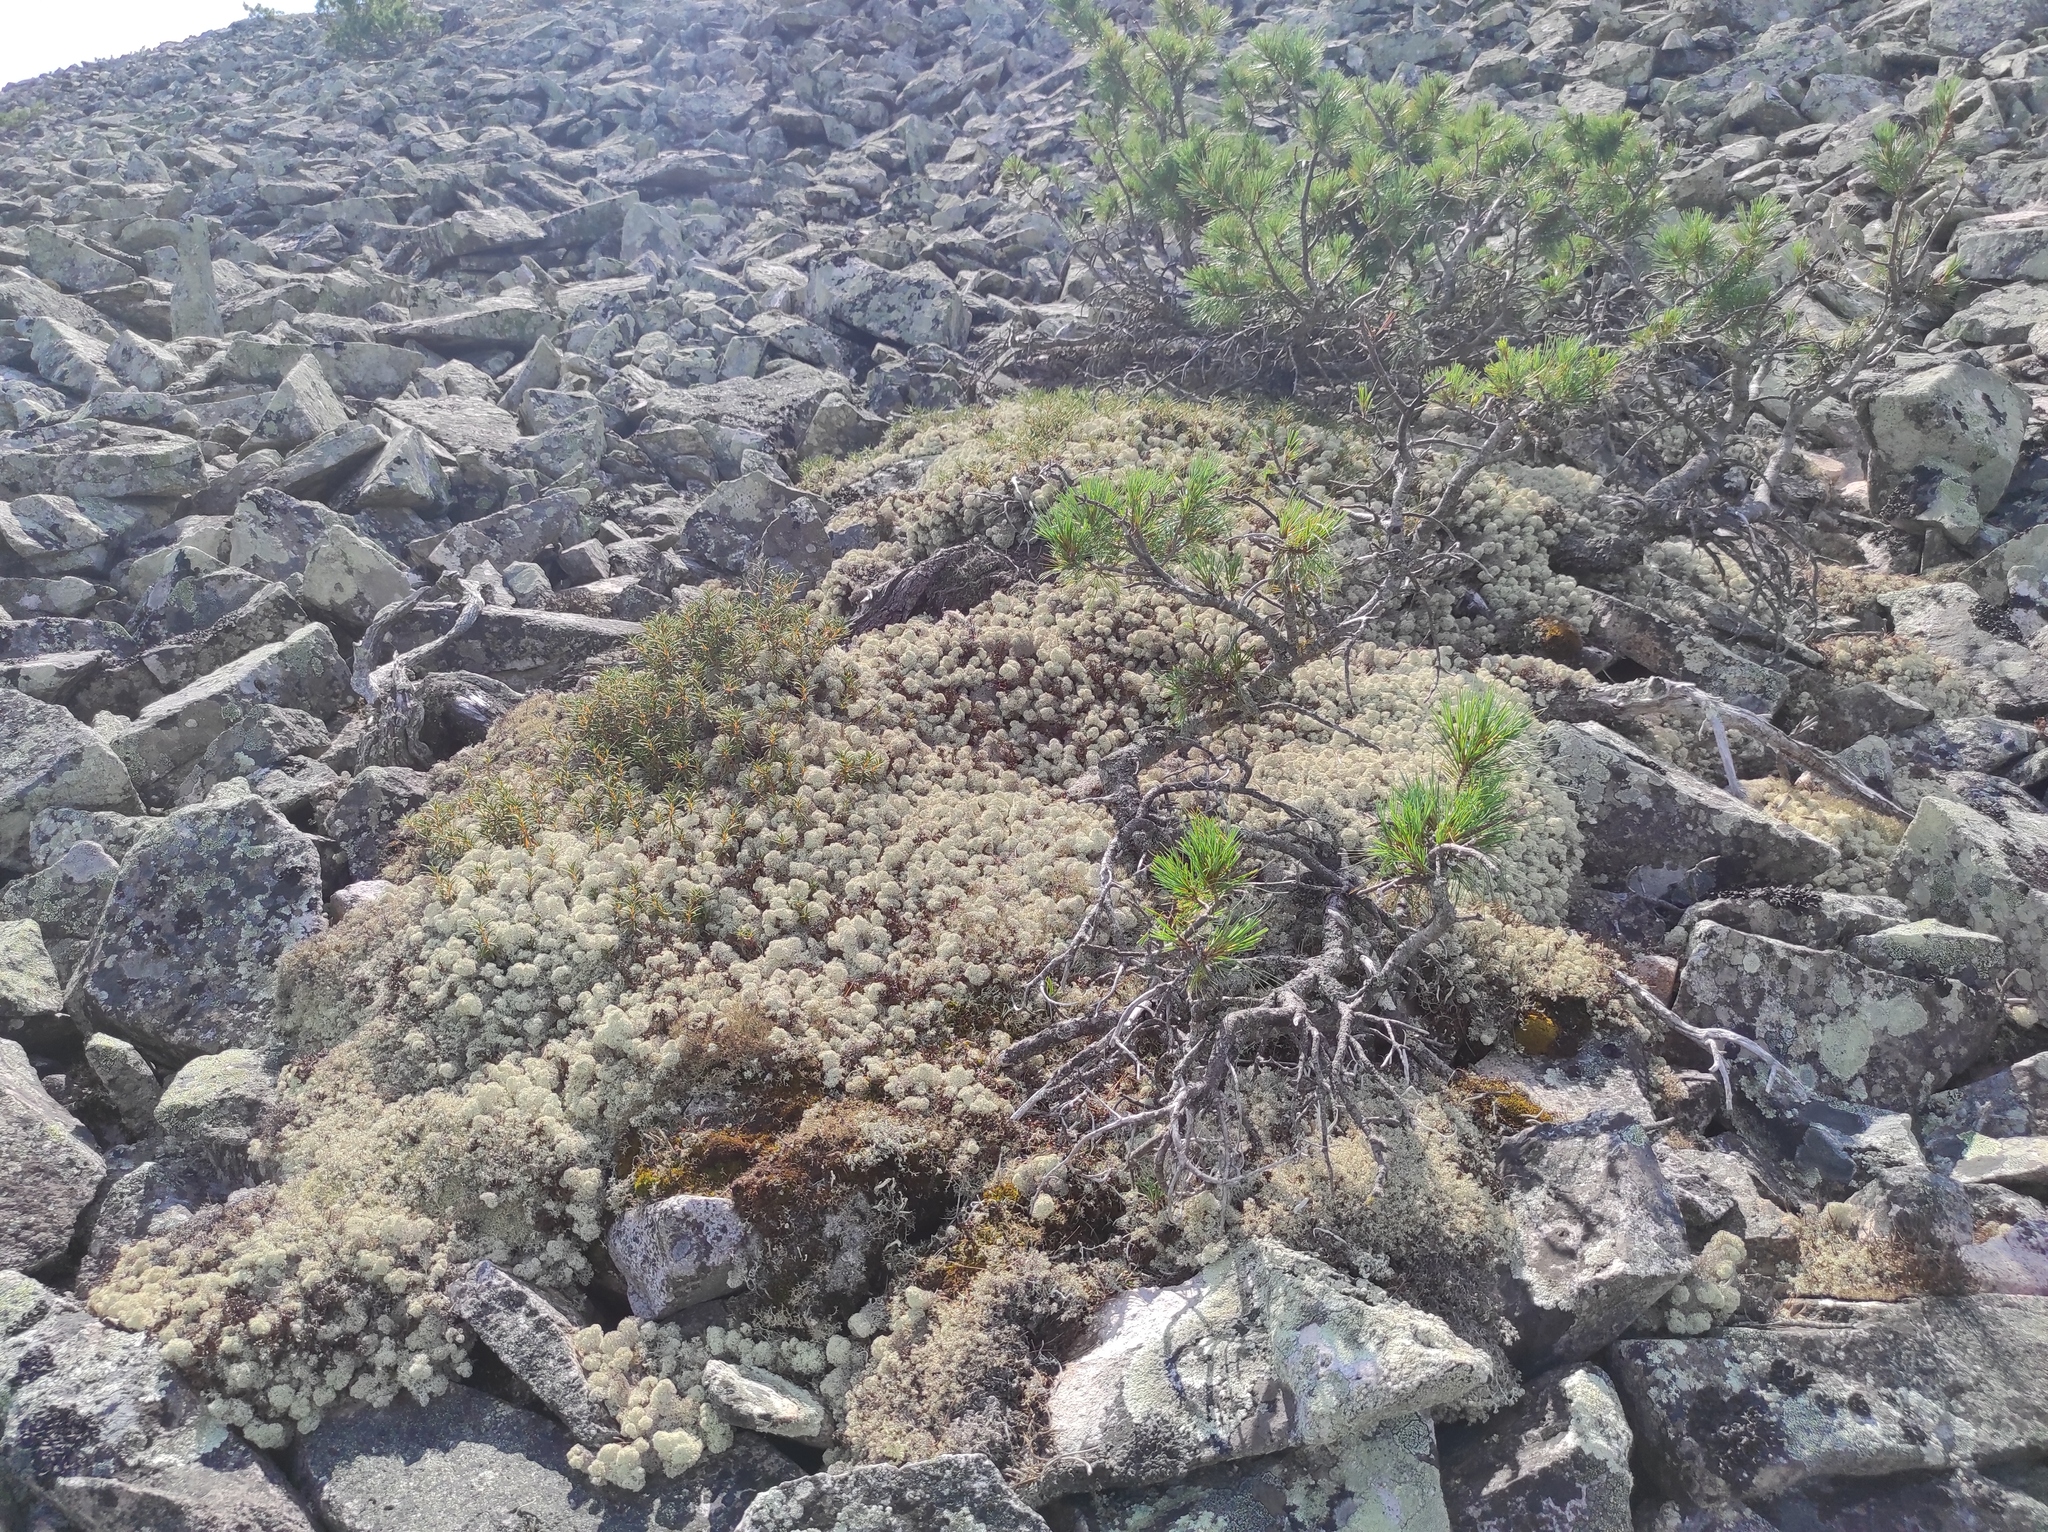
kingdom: Plantae
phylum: Tracheophyta
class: Pinopsida
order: Pinales
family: Pinaceae
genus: Pinus
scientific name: Pinus pumila
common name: Dwarf siberian pine
